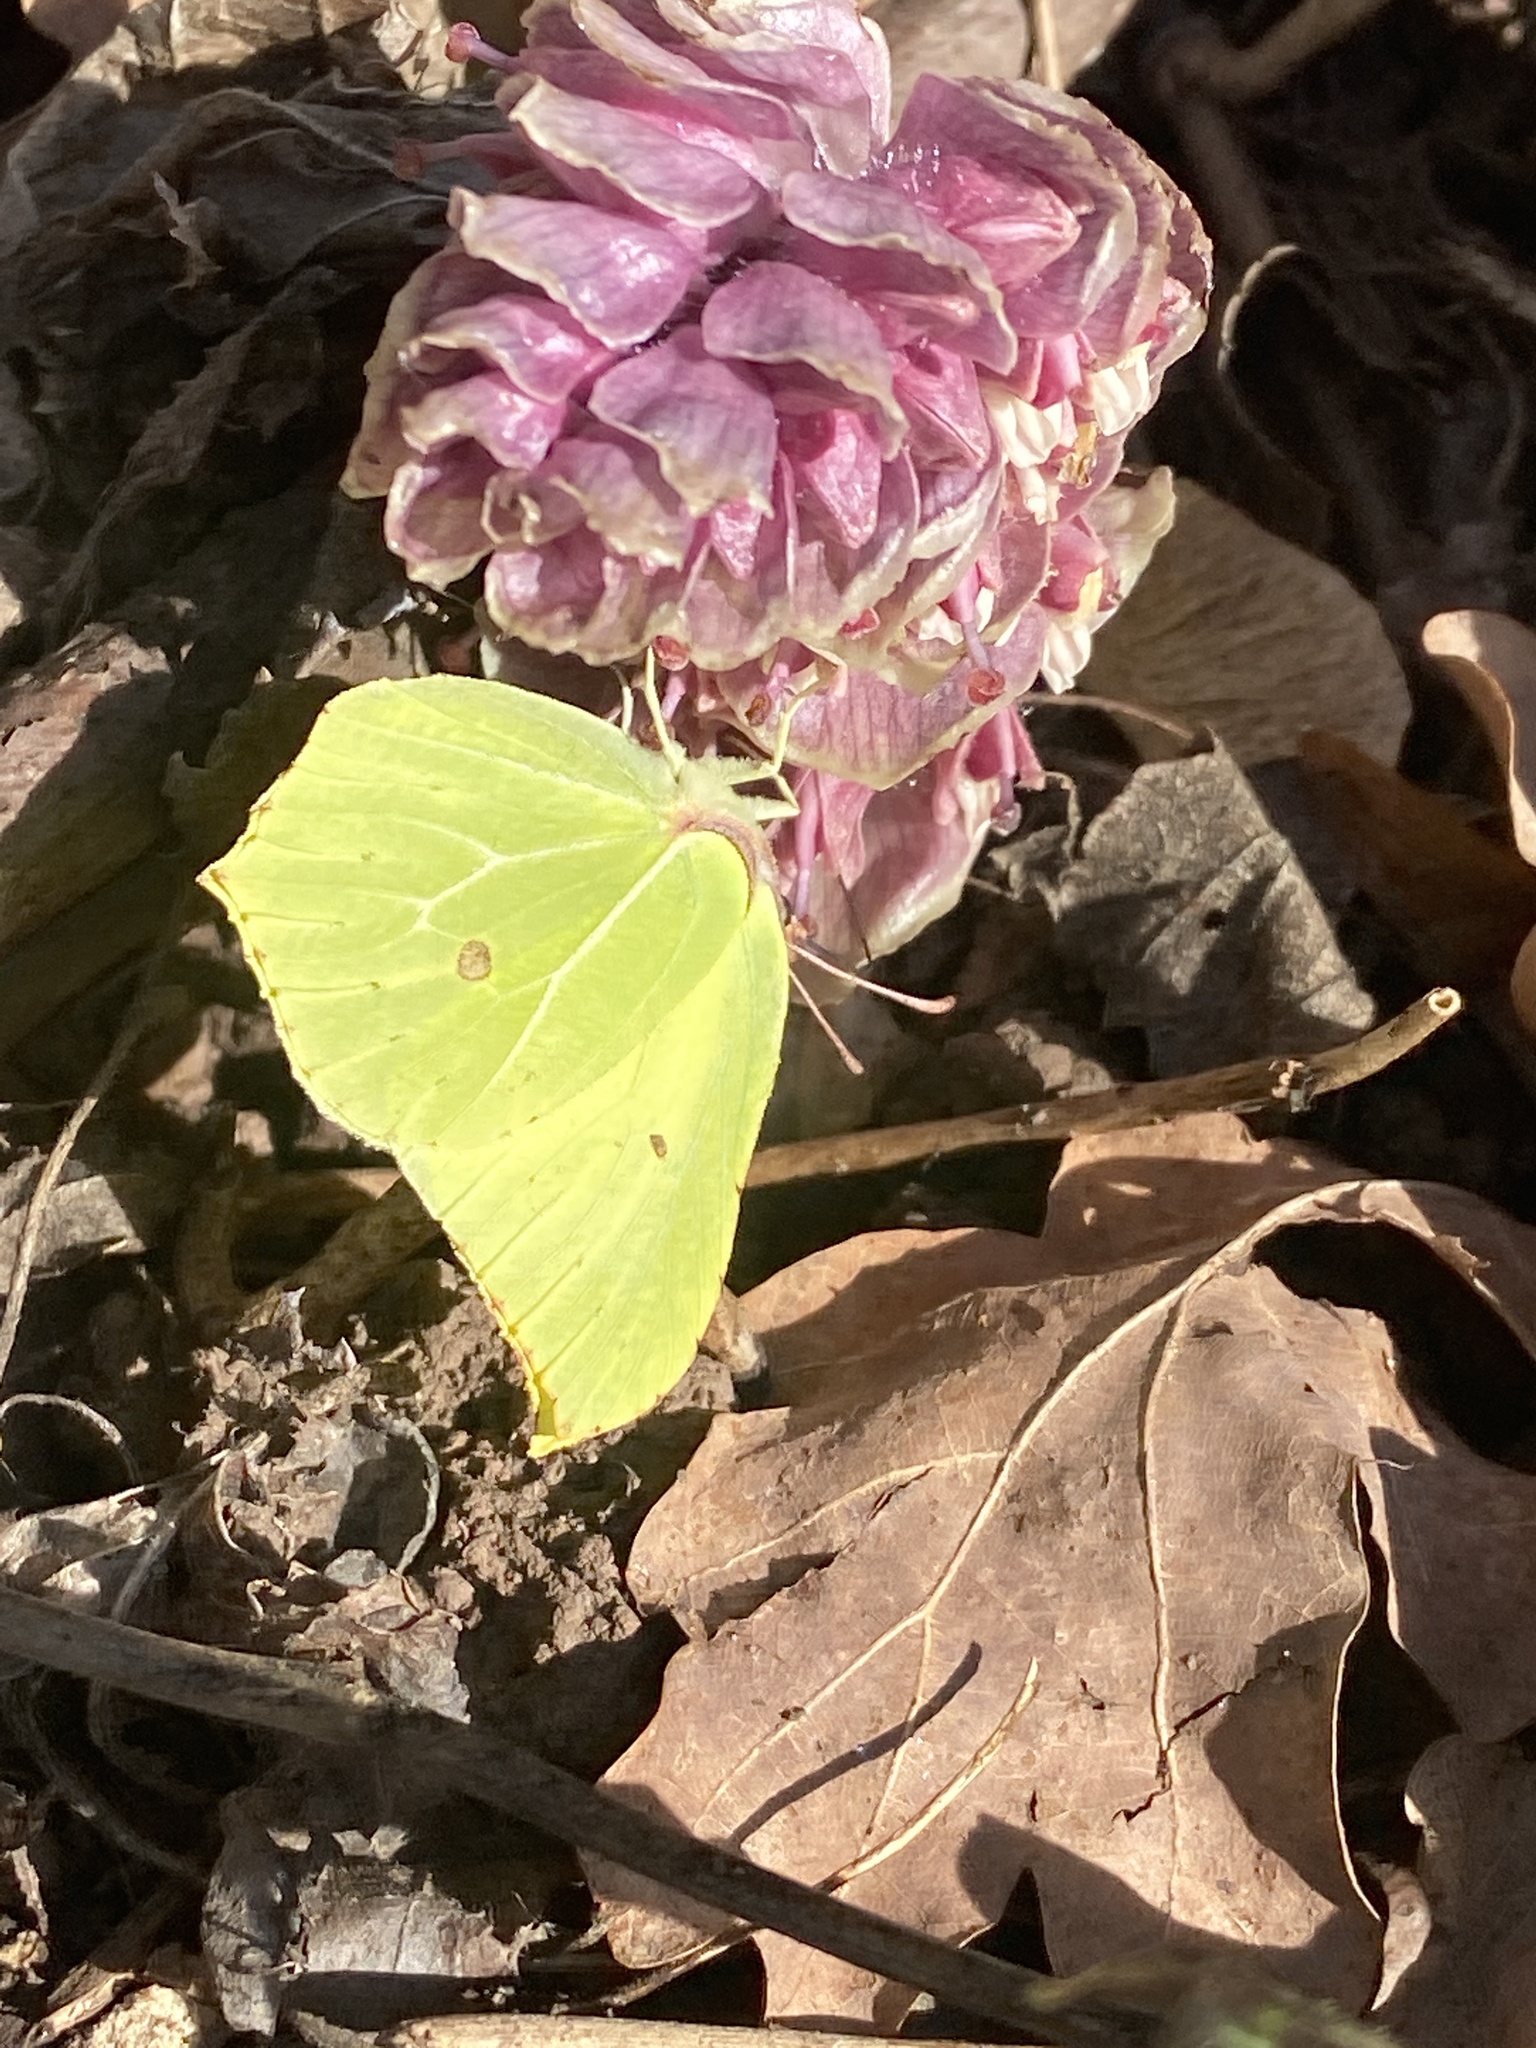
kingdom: Animalia
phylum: Arthropoda
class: Insecta
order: Lepidoptera
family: Pieridae
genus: Gonepteryx
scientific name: Gonepteryx rhamni
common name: Brimstone
